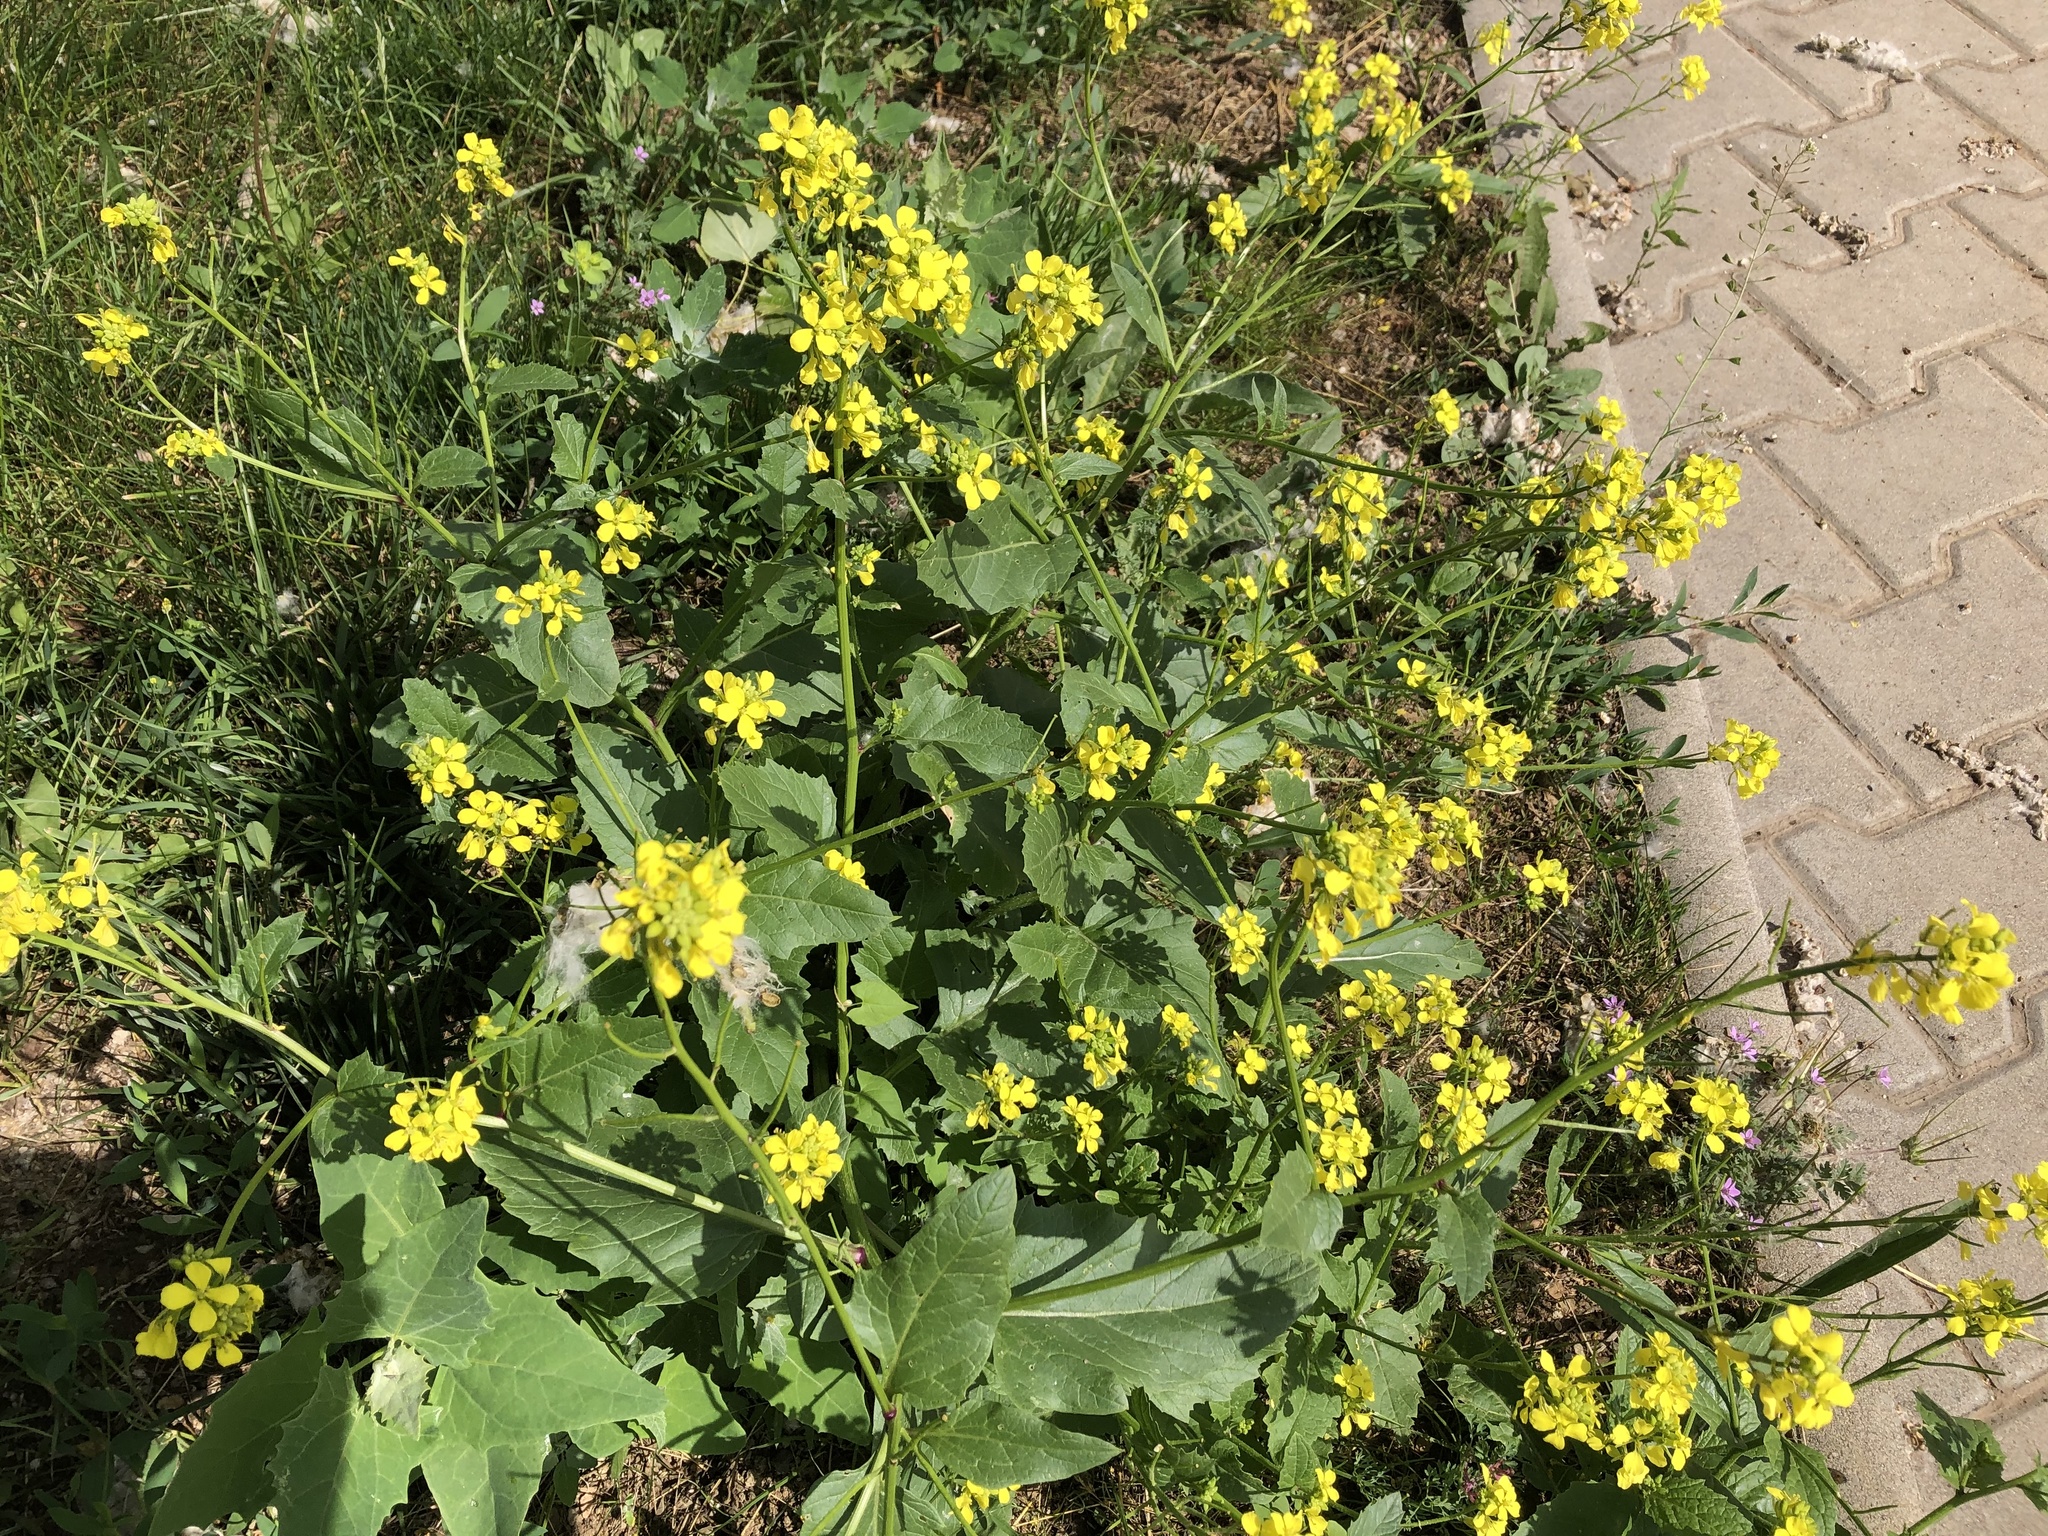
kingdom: Plantae
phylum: Tracheophyta
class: Magnoliopsida
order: Brassicales
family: Brassicaceae
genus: Sinapis
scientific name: Sinapis arvensis
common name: Charlock
